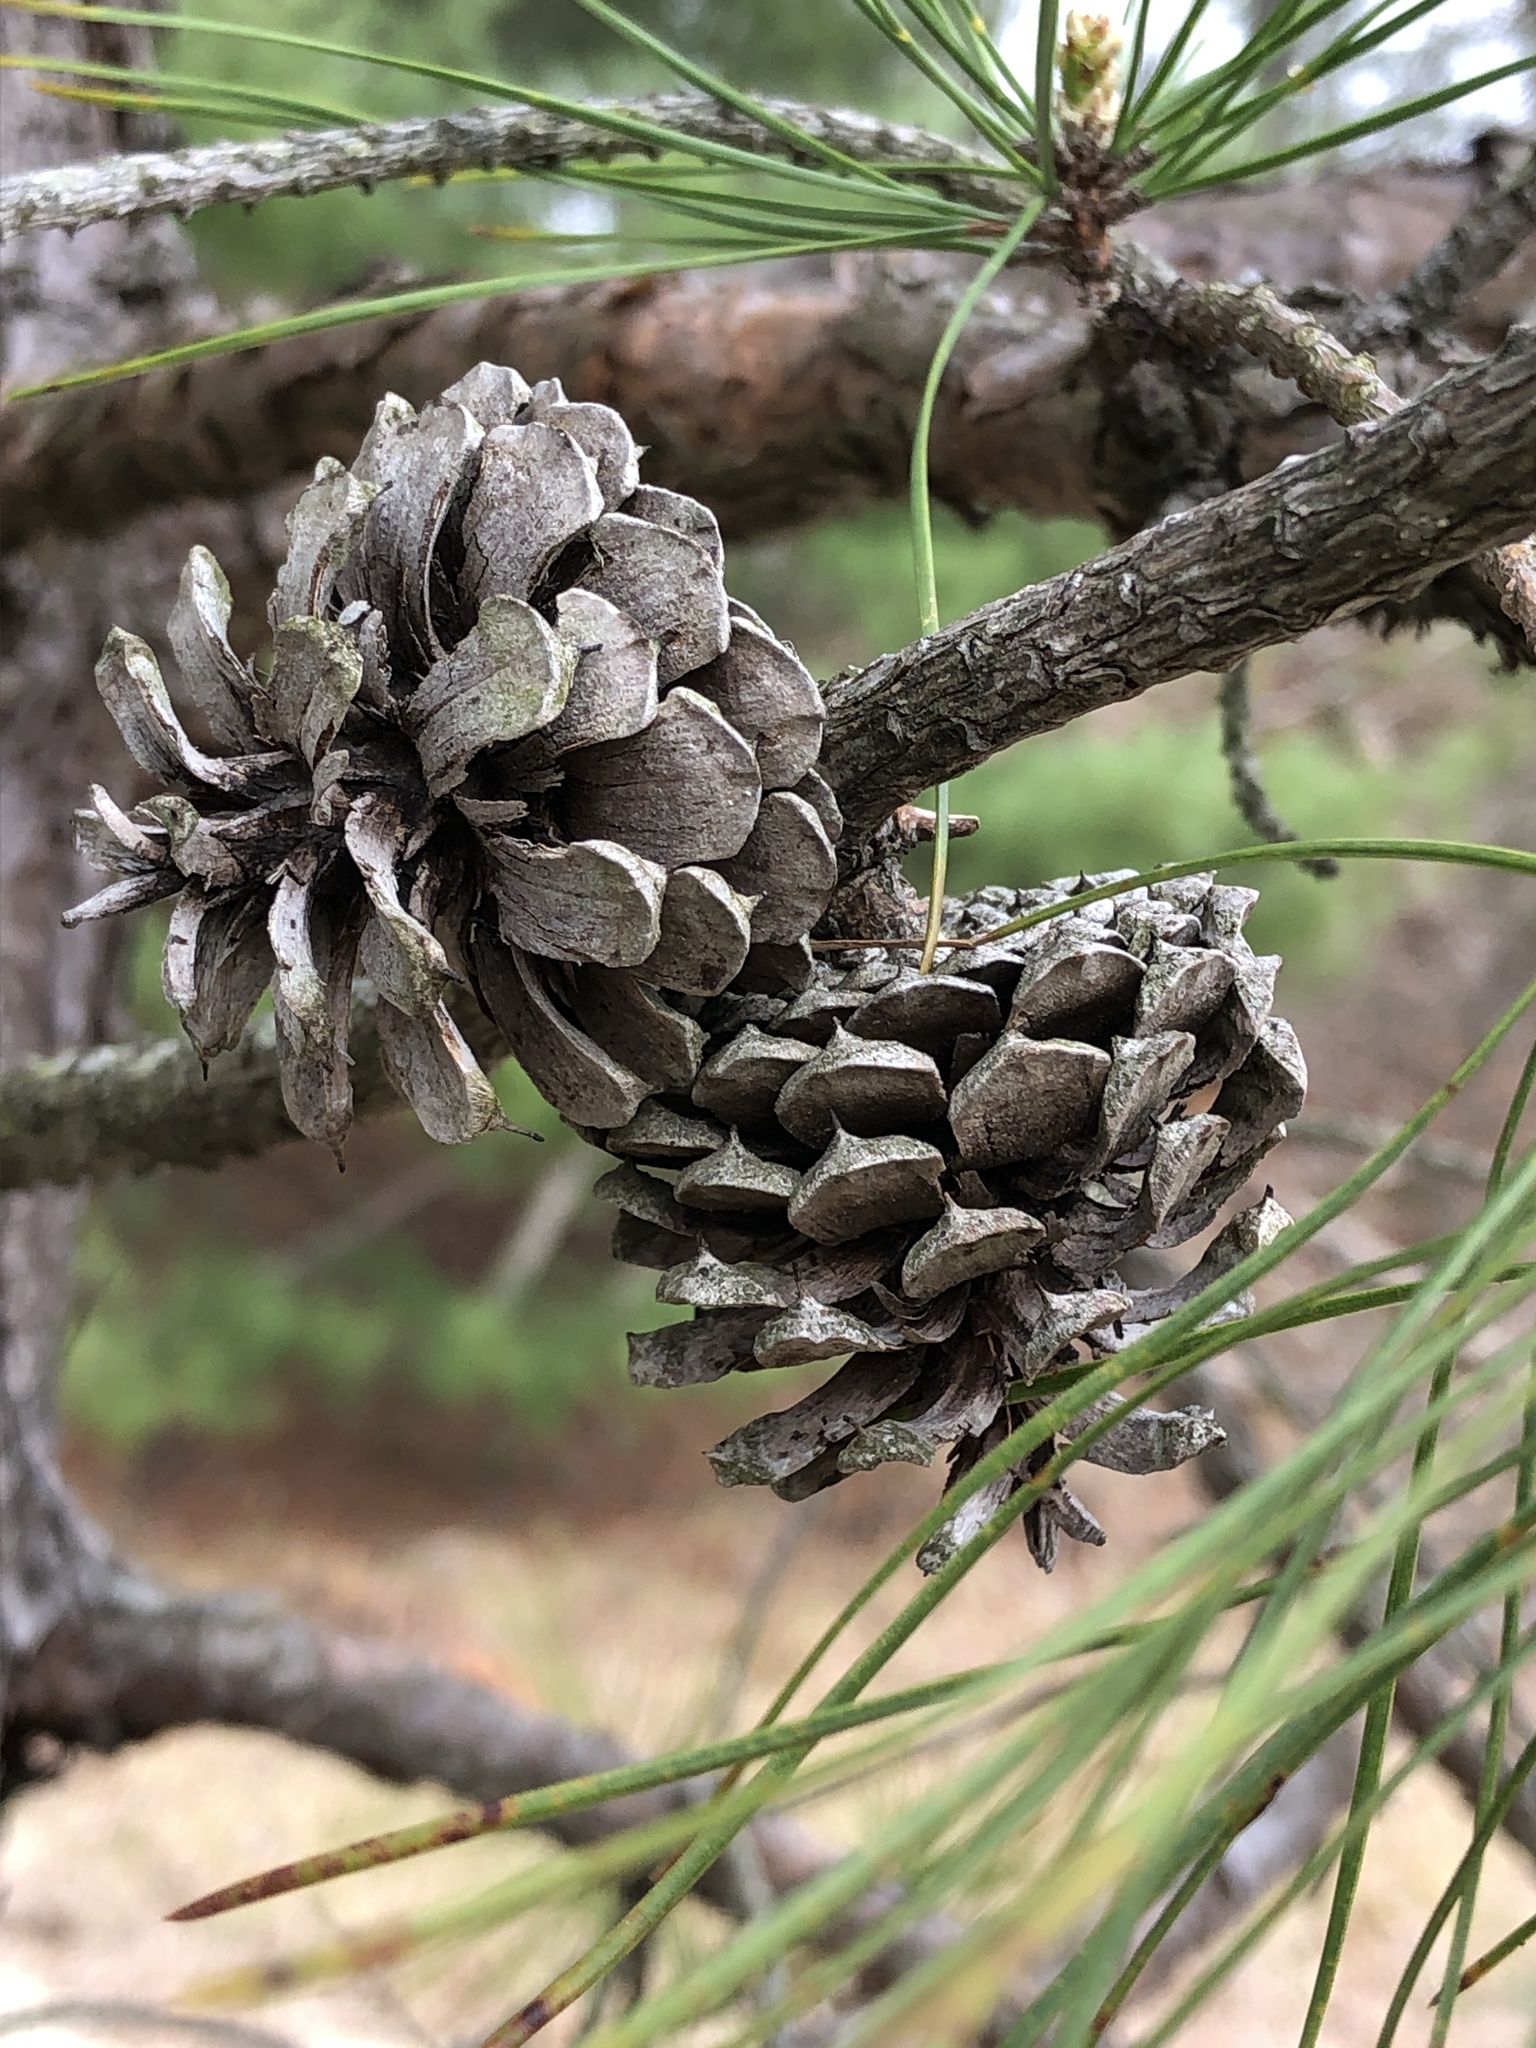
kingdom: Plantae
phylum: Tracheophyta
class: Pinopsida
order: Pinales
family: Pinaceae
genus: Pinus
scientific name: Pinus rigida
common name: Pitch pine
